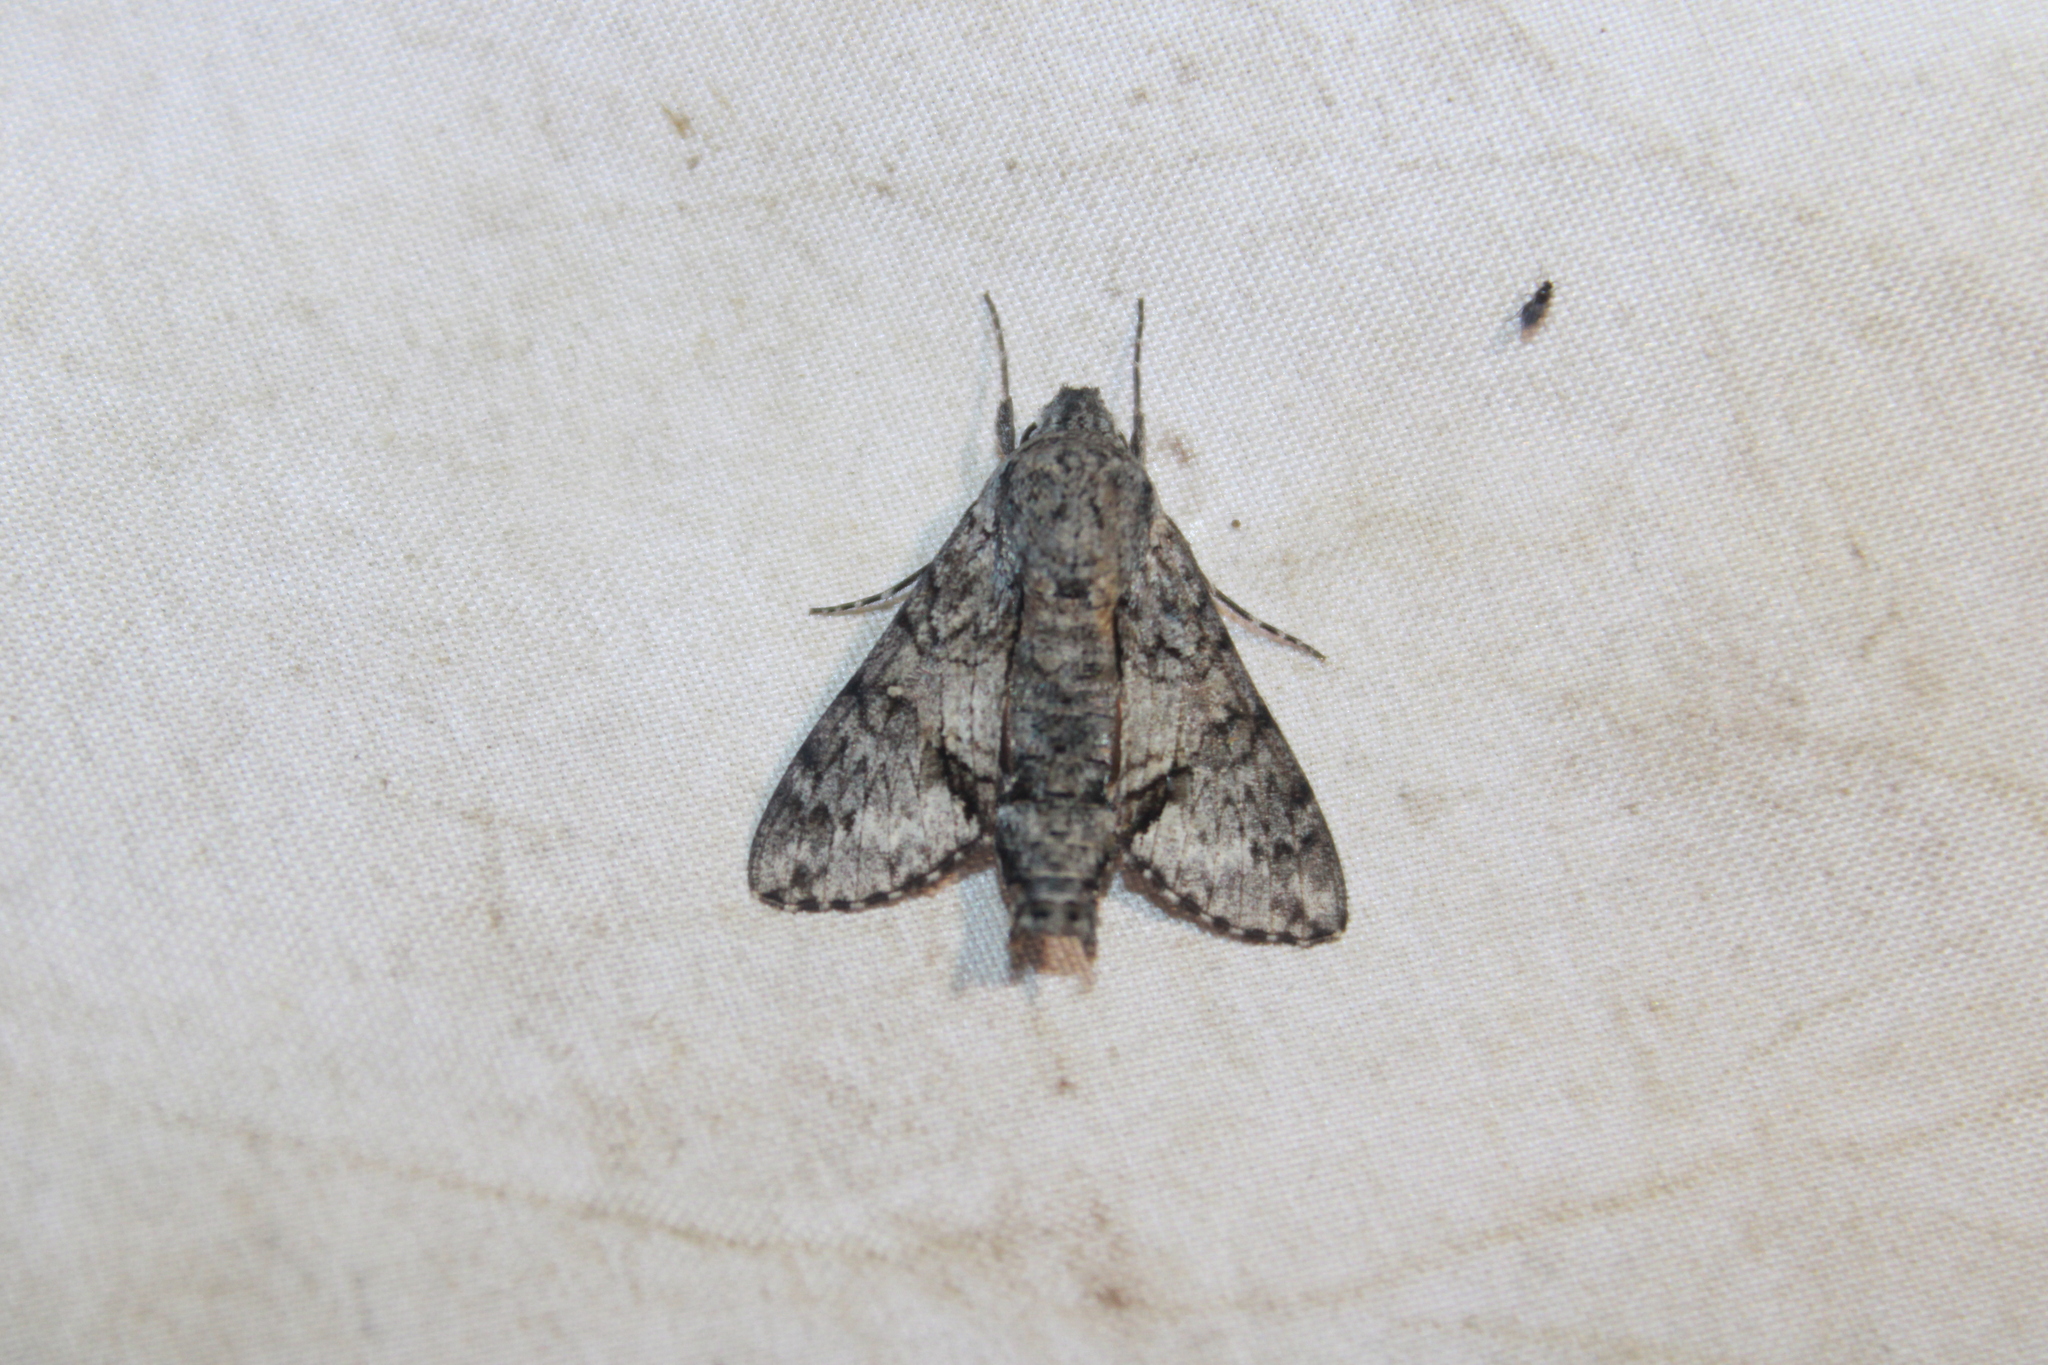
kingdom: Animalia
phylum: Arthropoda
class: Insecta
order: Lepidoptera
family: Sphingidae
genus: Cautethia
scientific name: Cautethia grotei
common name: Grote's sphinx
